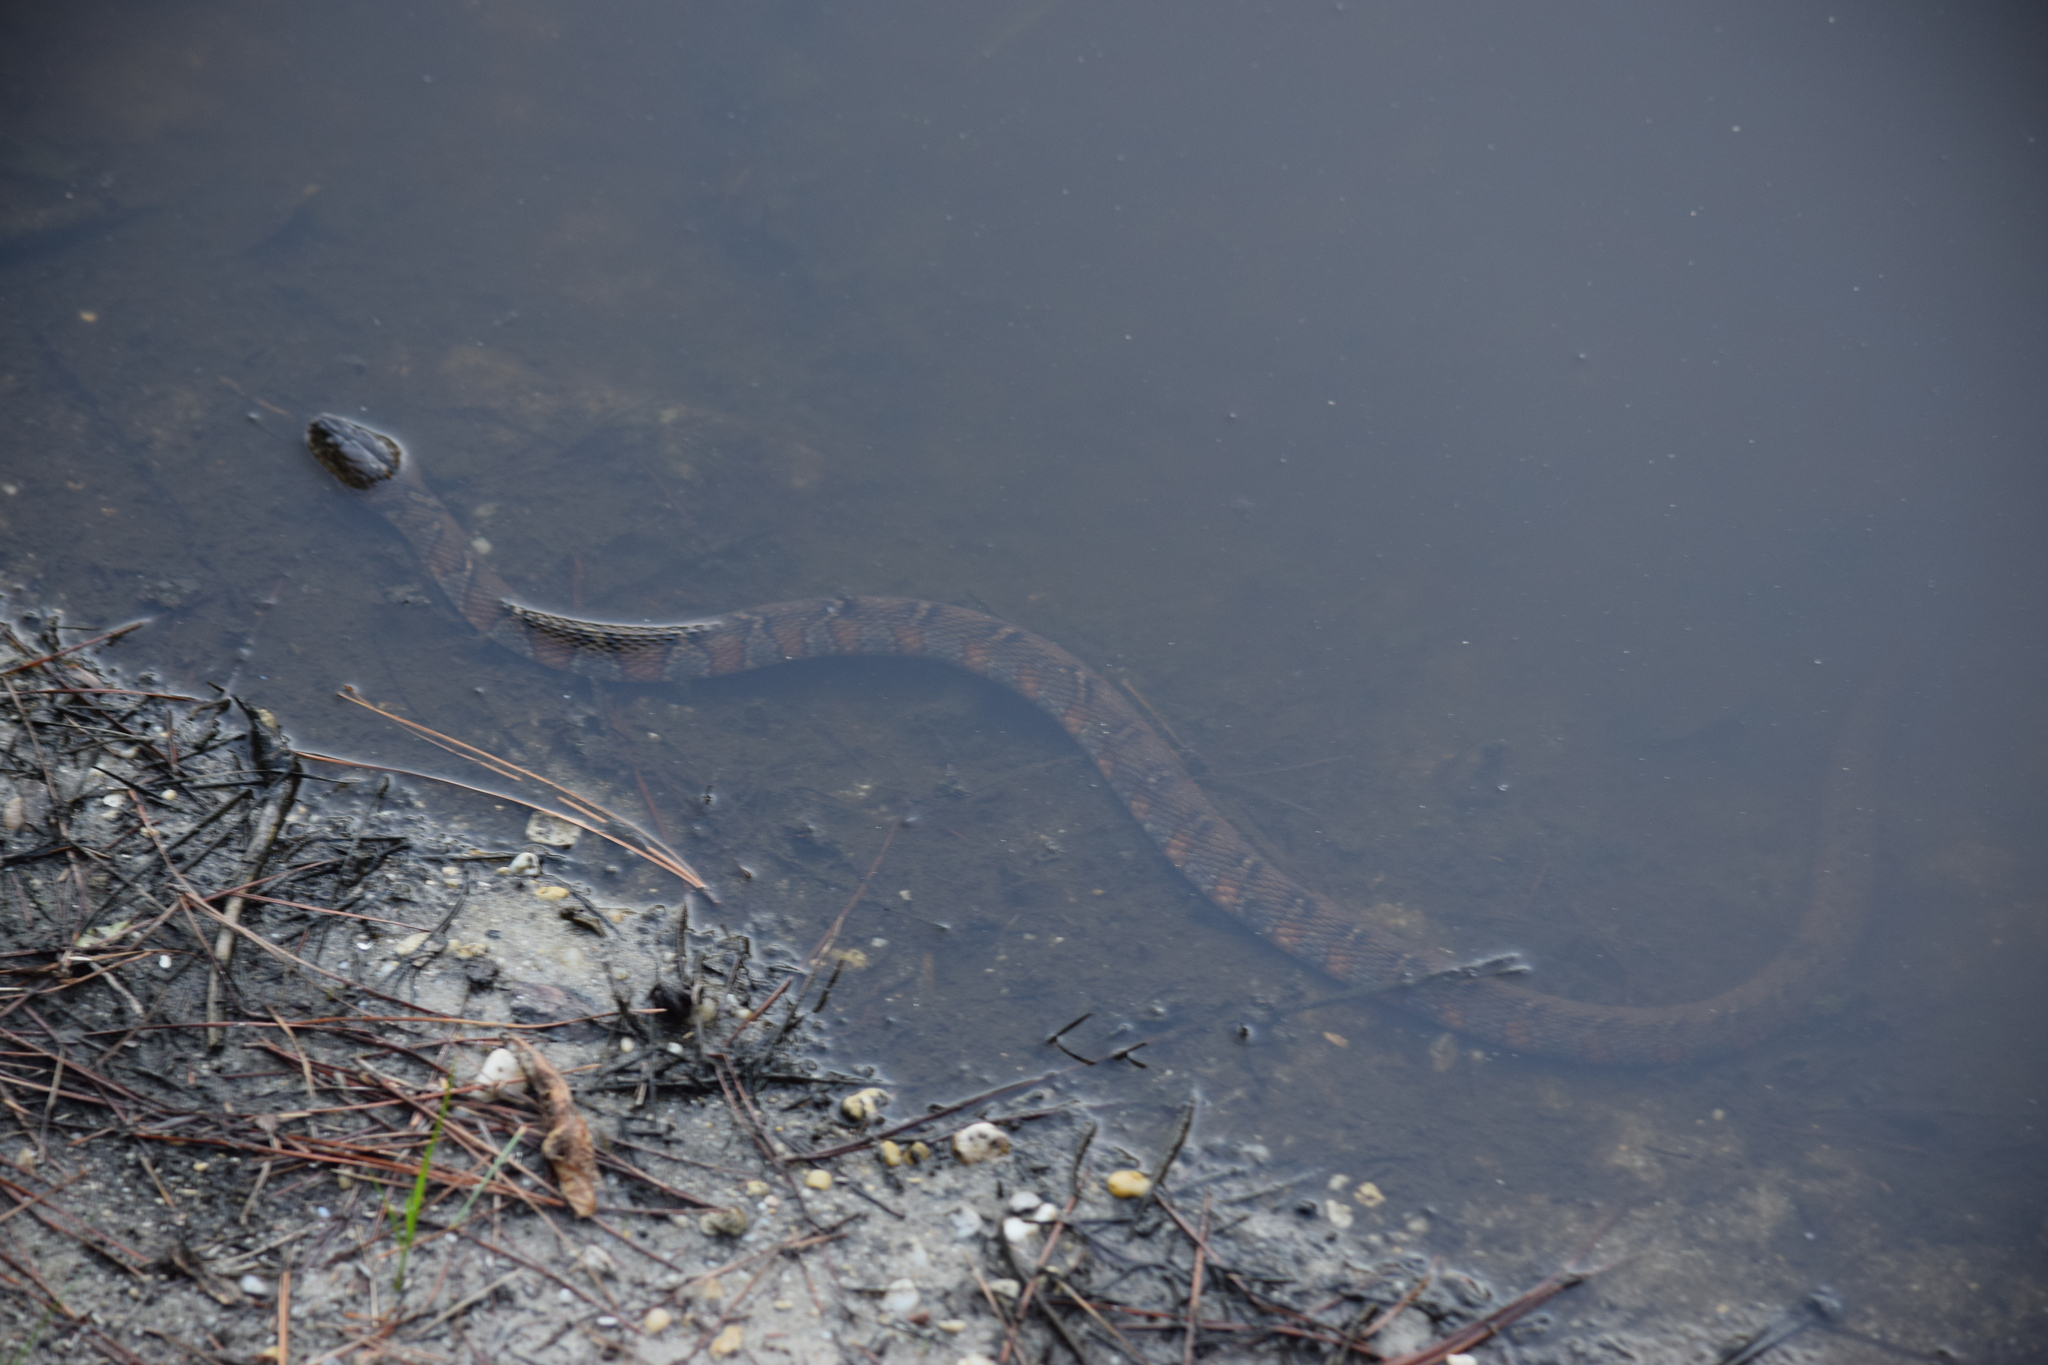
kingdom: Animalia
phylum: Chordata
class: Squamata
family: Colubridae
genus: Nerodia
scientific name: Nerodia sipedon
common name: Northern water snake
